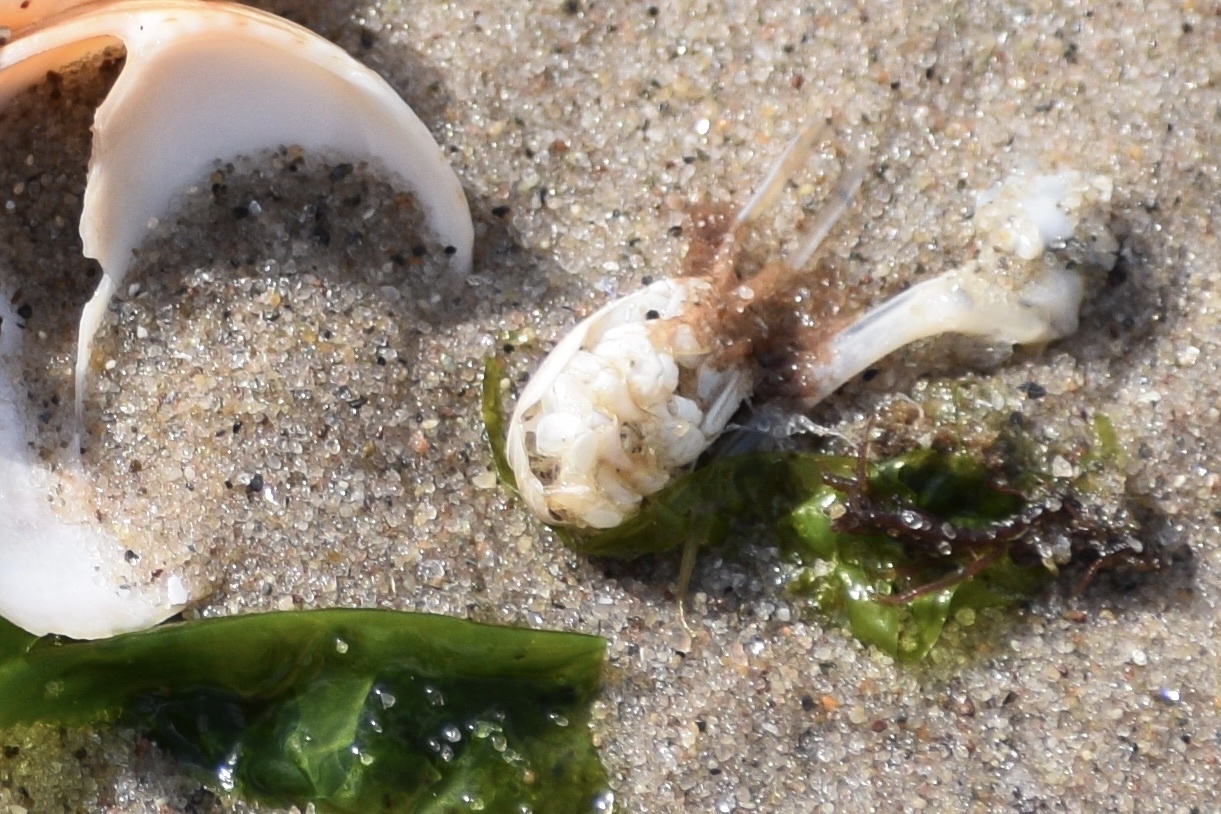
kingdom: Animalia
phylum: Arthropoda
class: Malacostraca
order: Decapoda
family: Hippidae
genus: Emerita
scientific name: Emerita talpoida
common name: Atlantic sand crab
